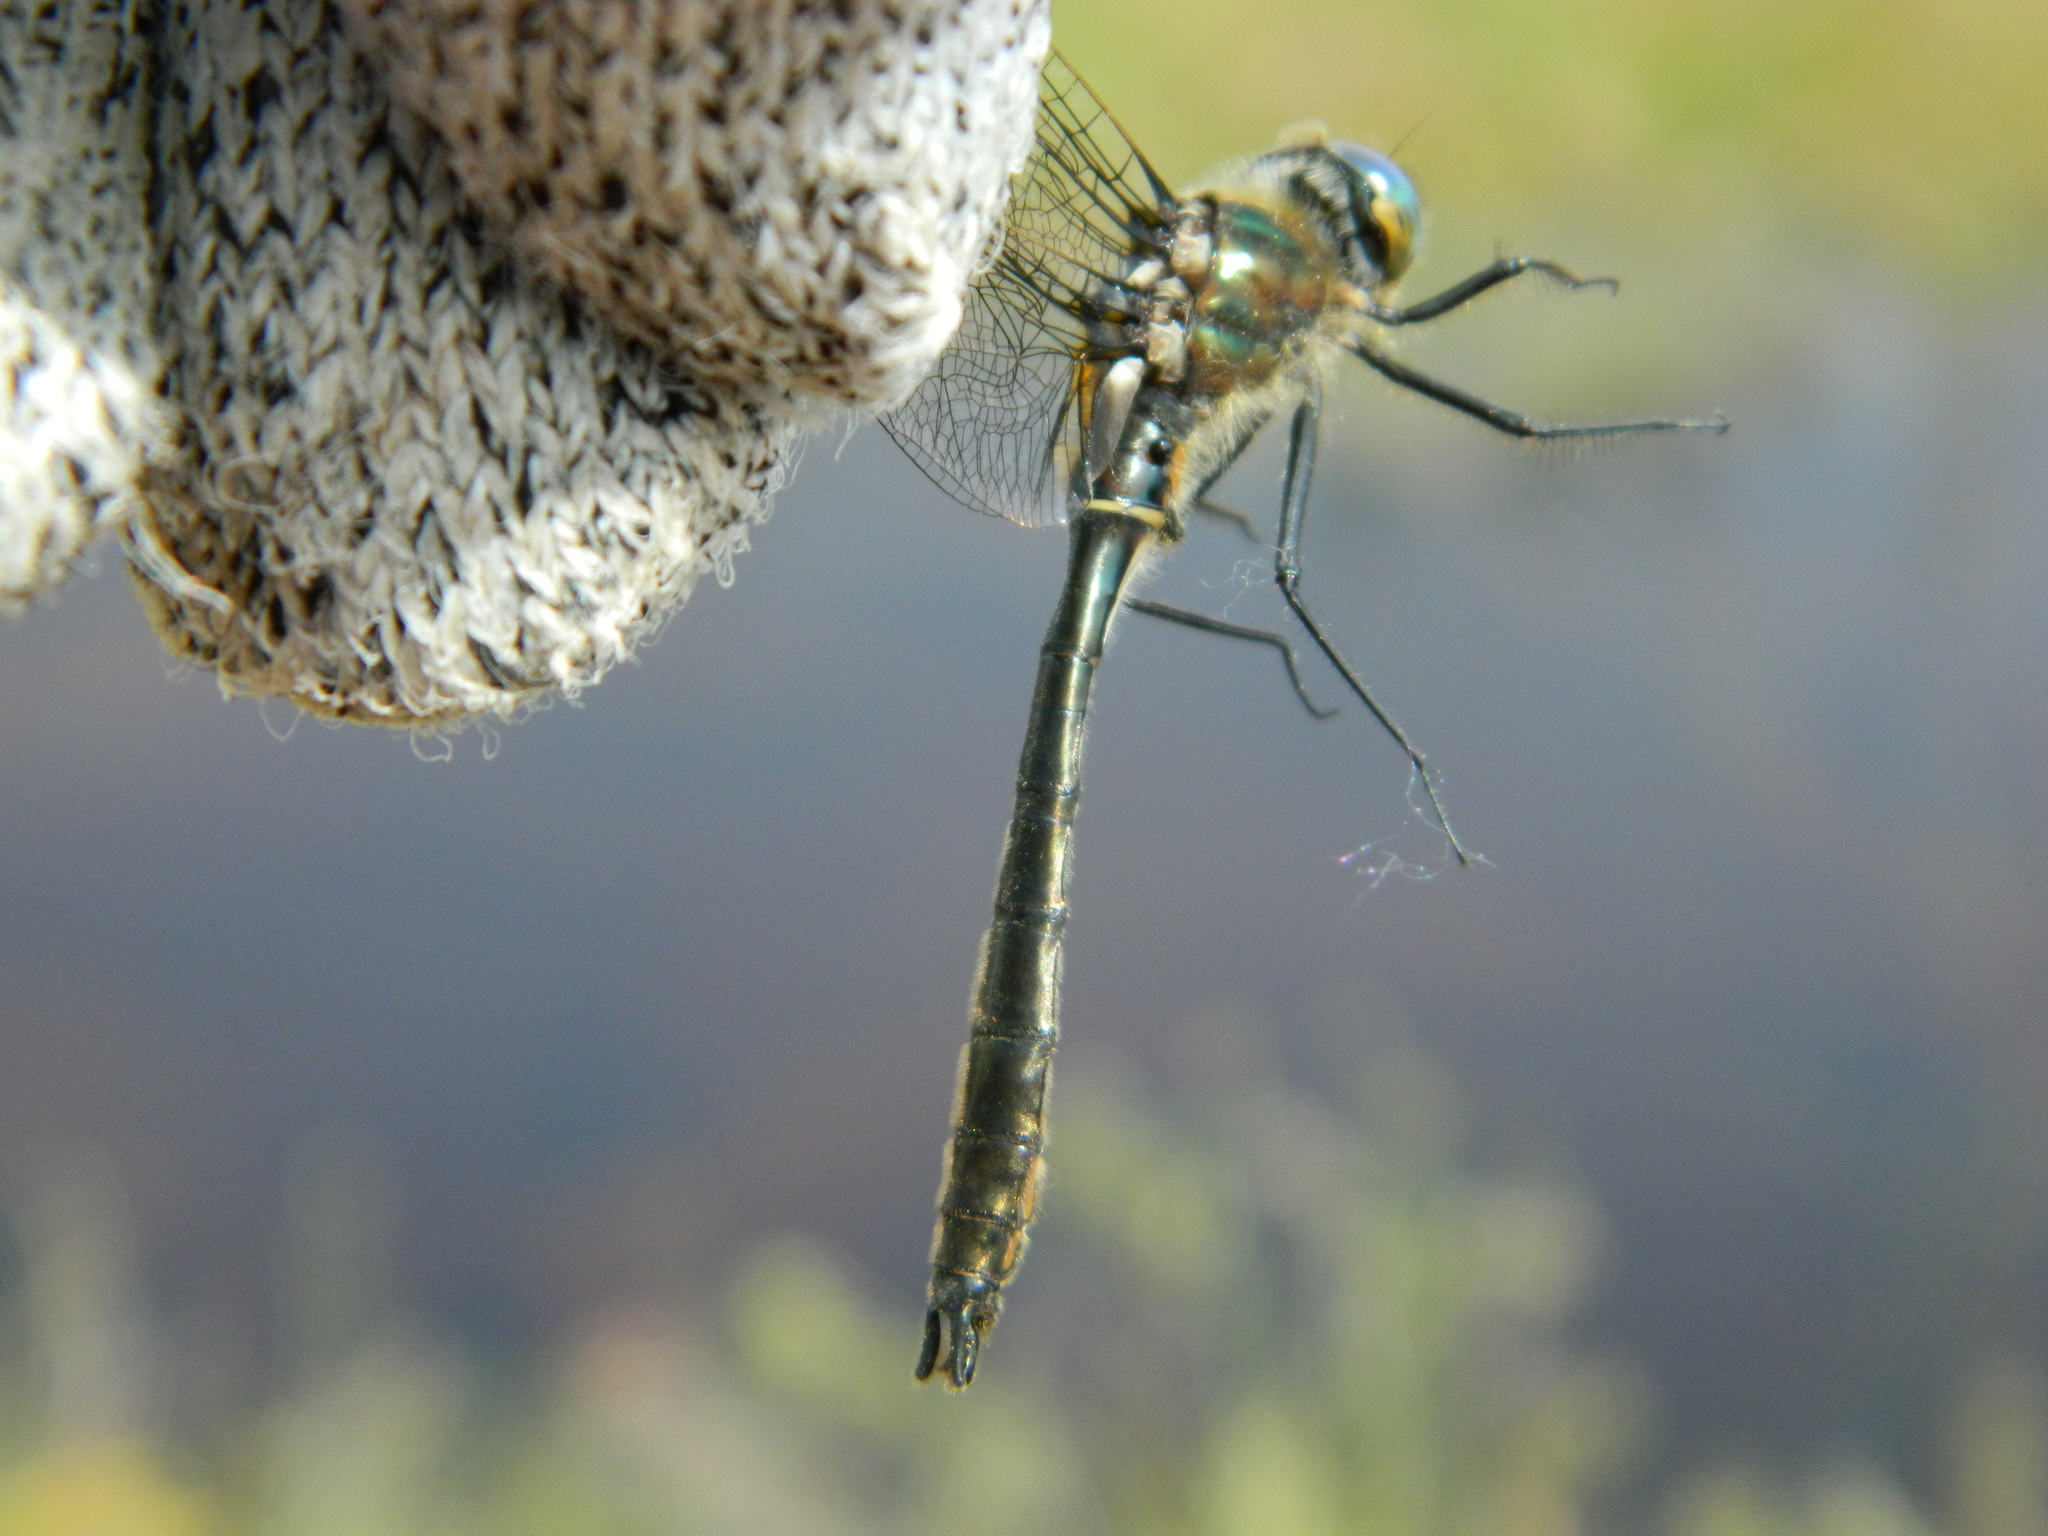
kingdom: Animalia
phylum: Arthropoda
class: Insecta
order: Odonata
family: Corduliidae
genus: Cordulia
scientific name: Cordulia shurtleffii
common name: American emerald
